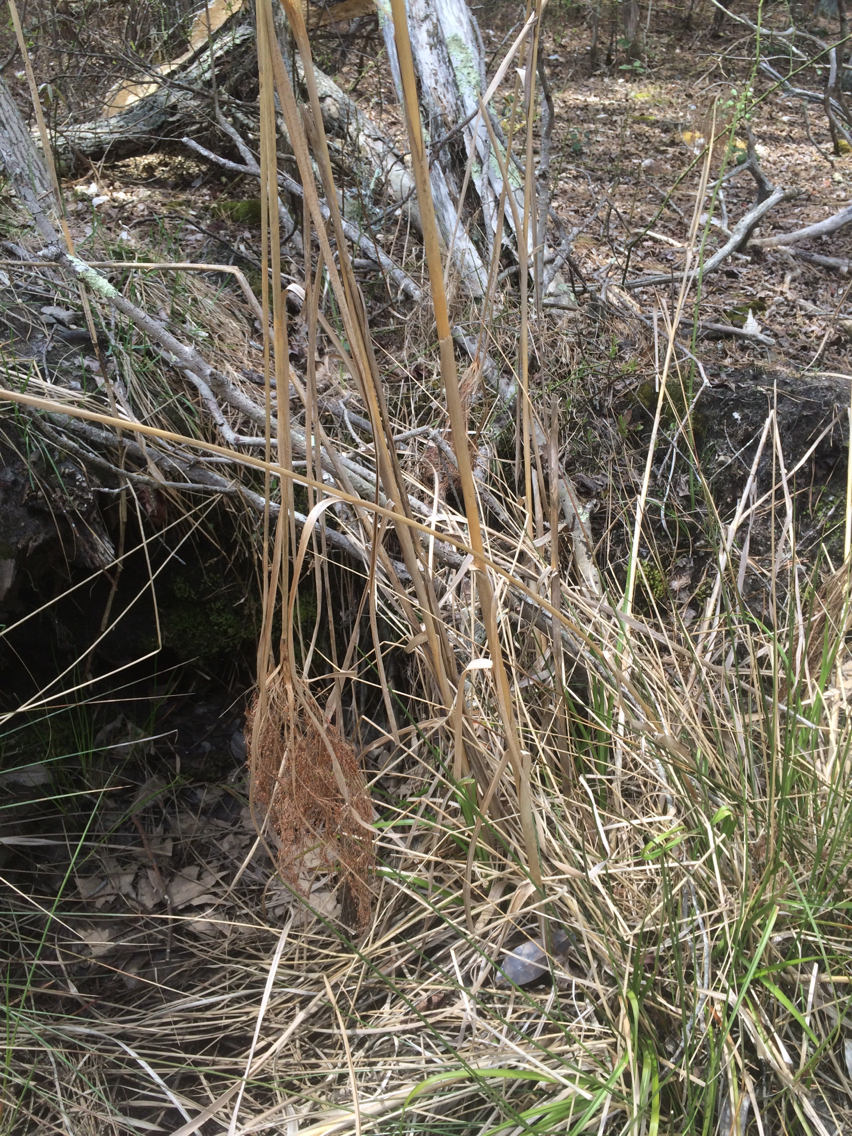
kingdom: Plantae
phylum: Tracheophyta
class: Liliopsida
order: Poales
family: Cyperaceae
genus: Scirpus
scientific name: Scirpus cyperinus
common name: Black-sheathed bulrush
